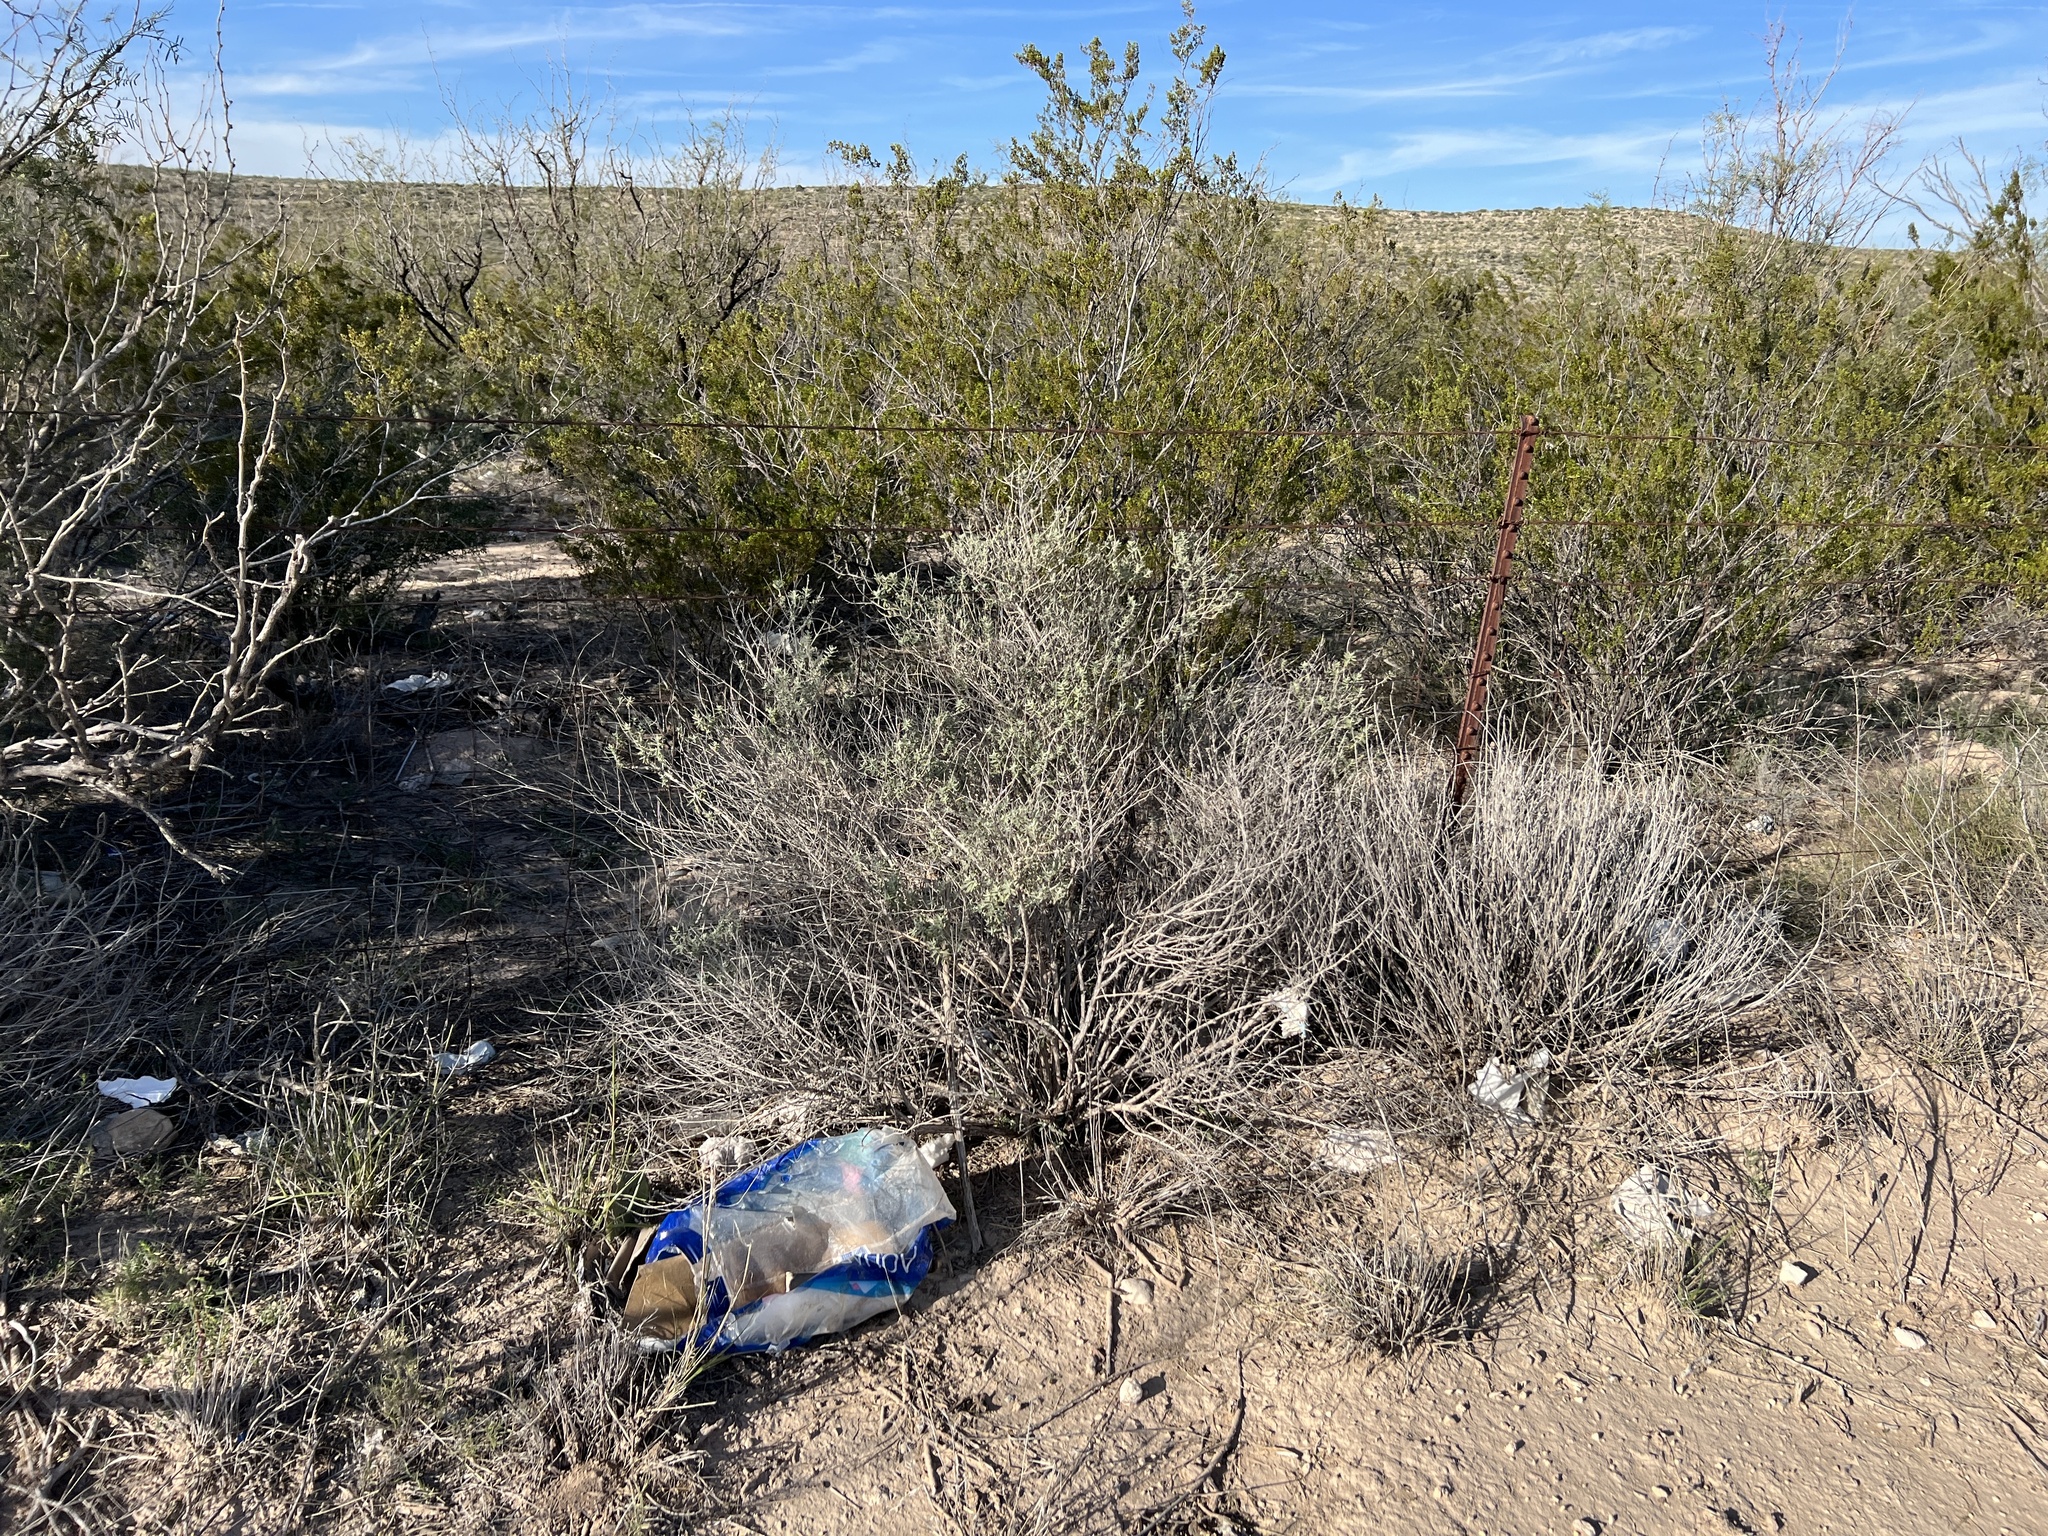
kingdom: Plantae
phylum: Tracheophyta
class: Magnoliopsida
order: Caryophyllales
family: Amaranthaceae
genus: Atriplex
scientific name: Atriplex canescens
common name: Four-wing saltbush
